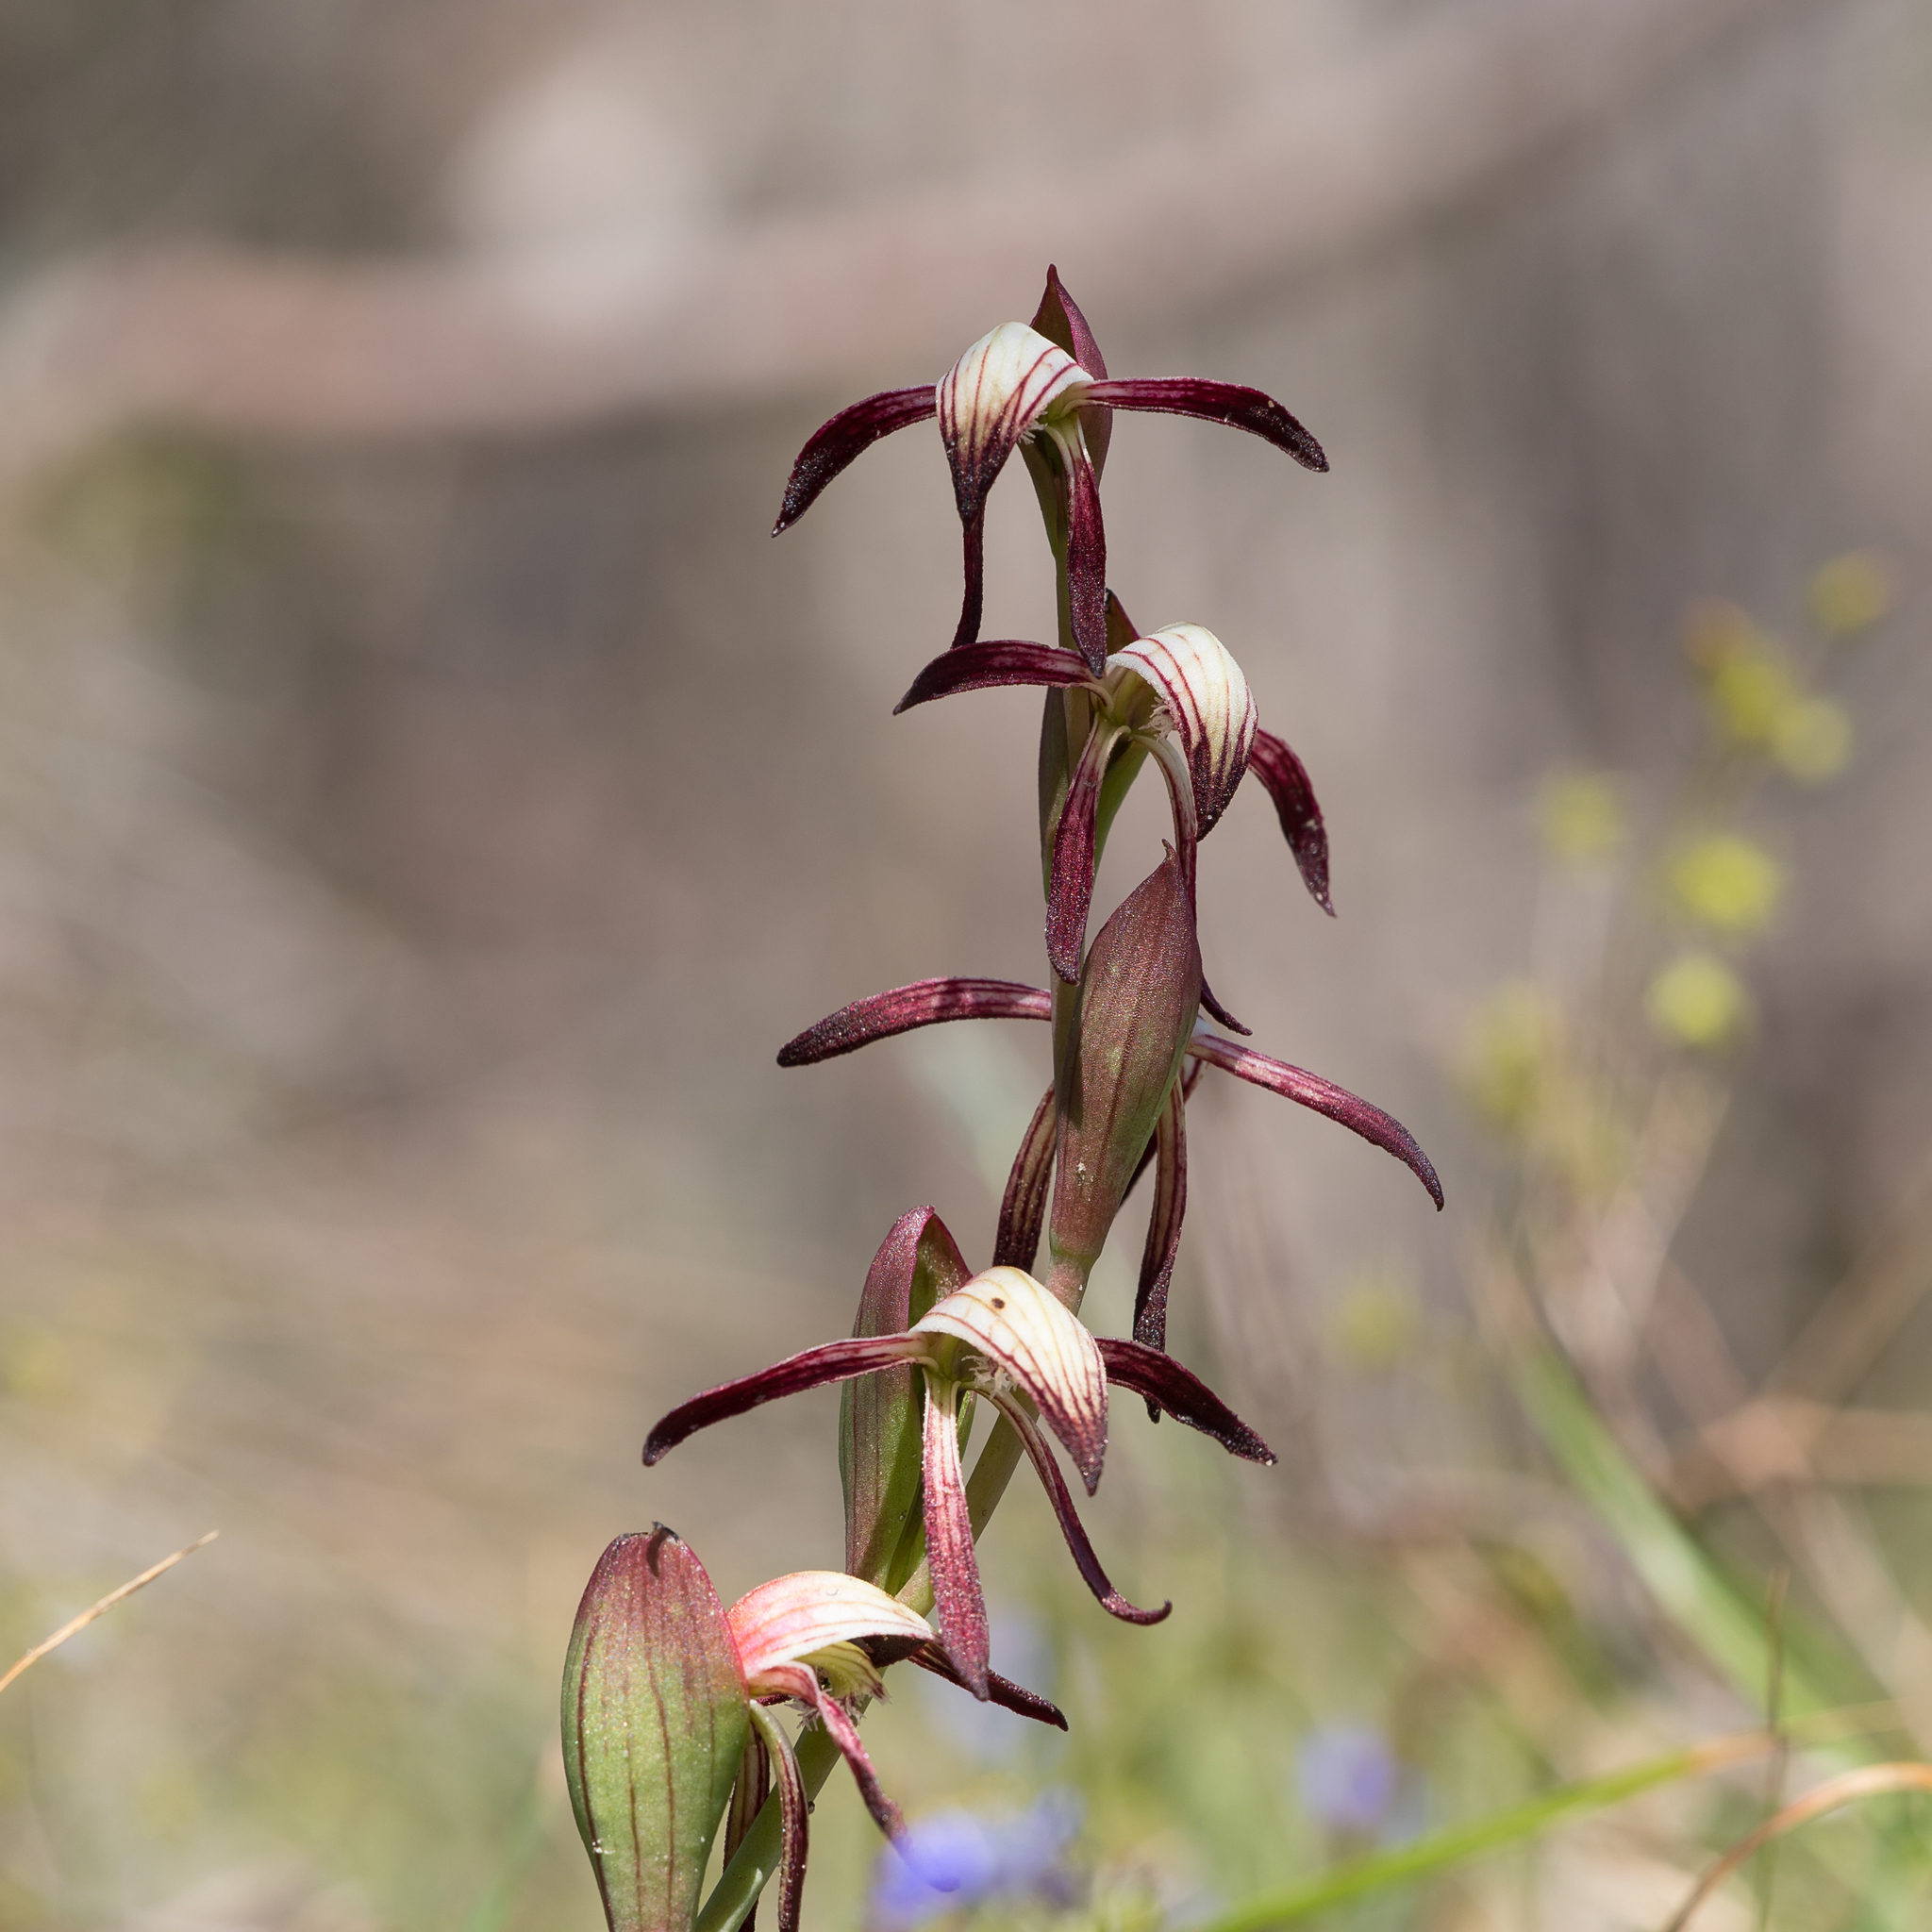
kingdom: Plantae
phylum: Tracheophyta
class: Liliopsida
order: Asparagales
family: Orchidaceae
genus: Pyrorchis
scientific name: Pyrorchis nigricans
